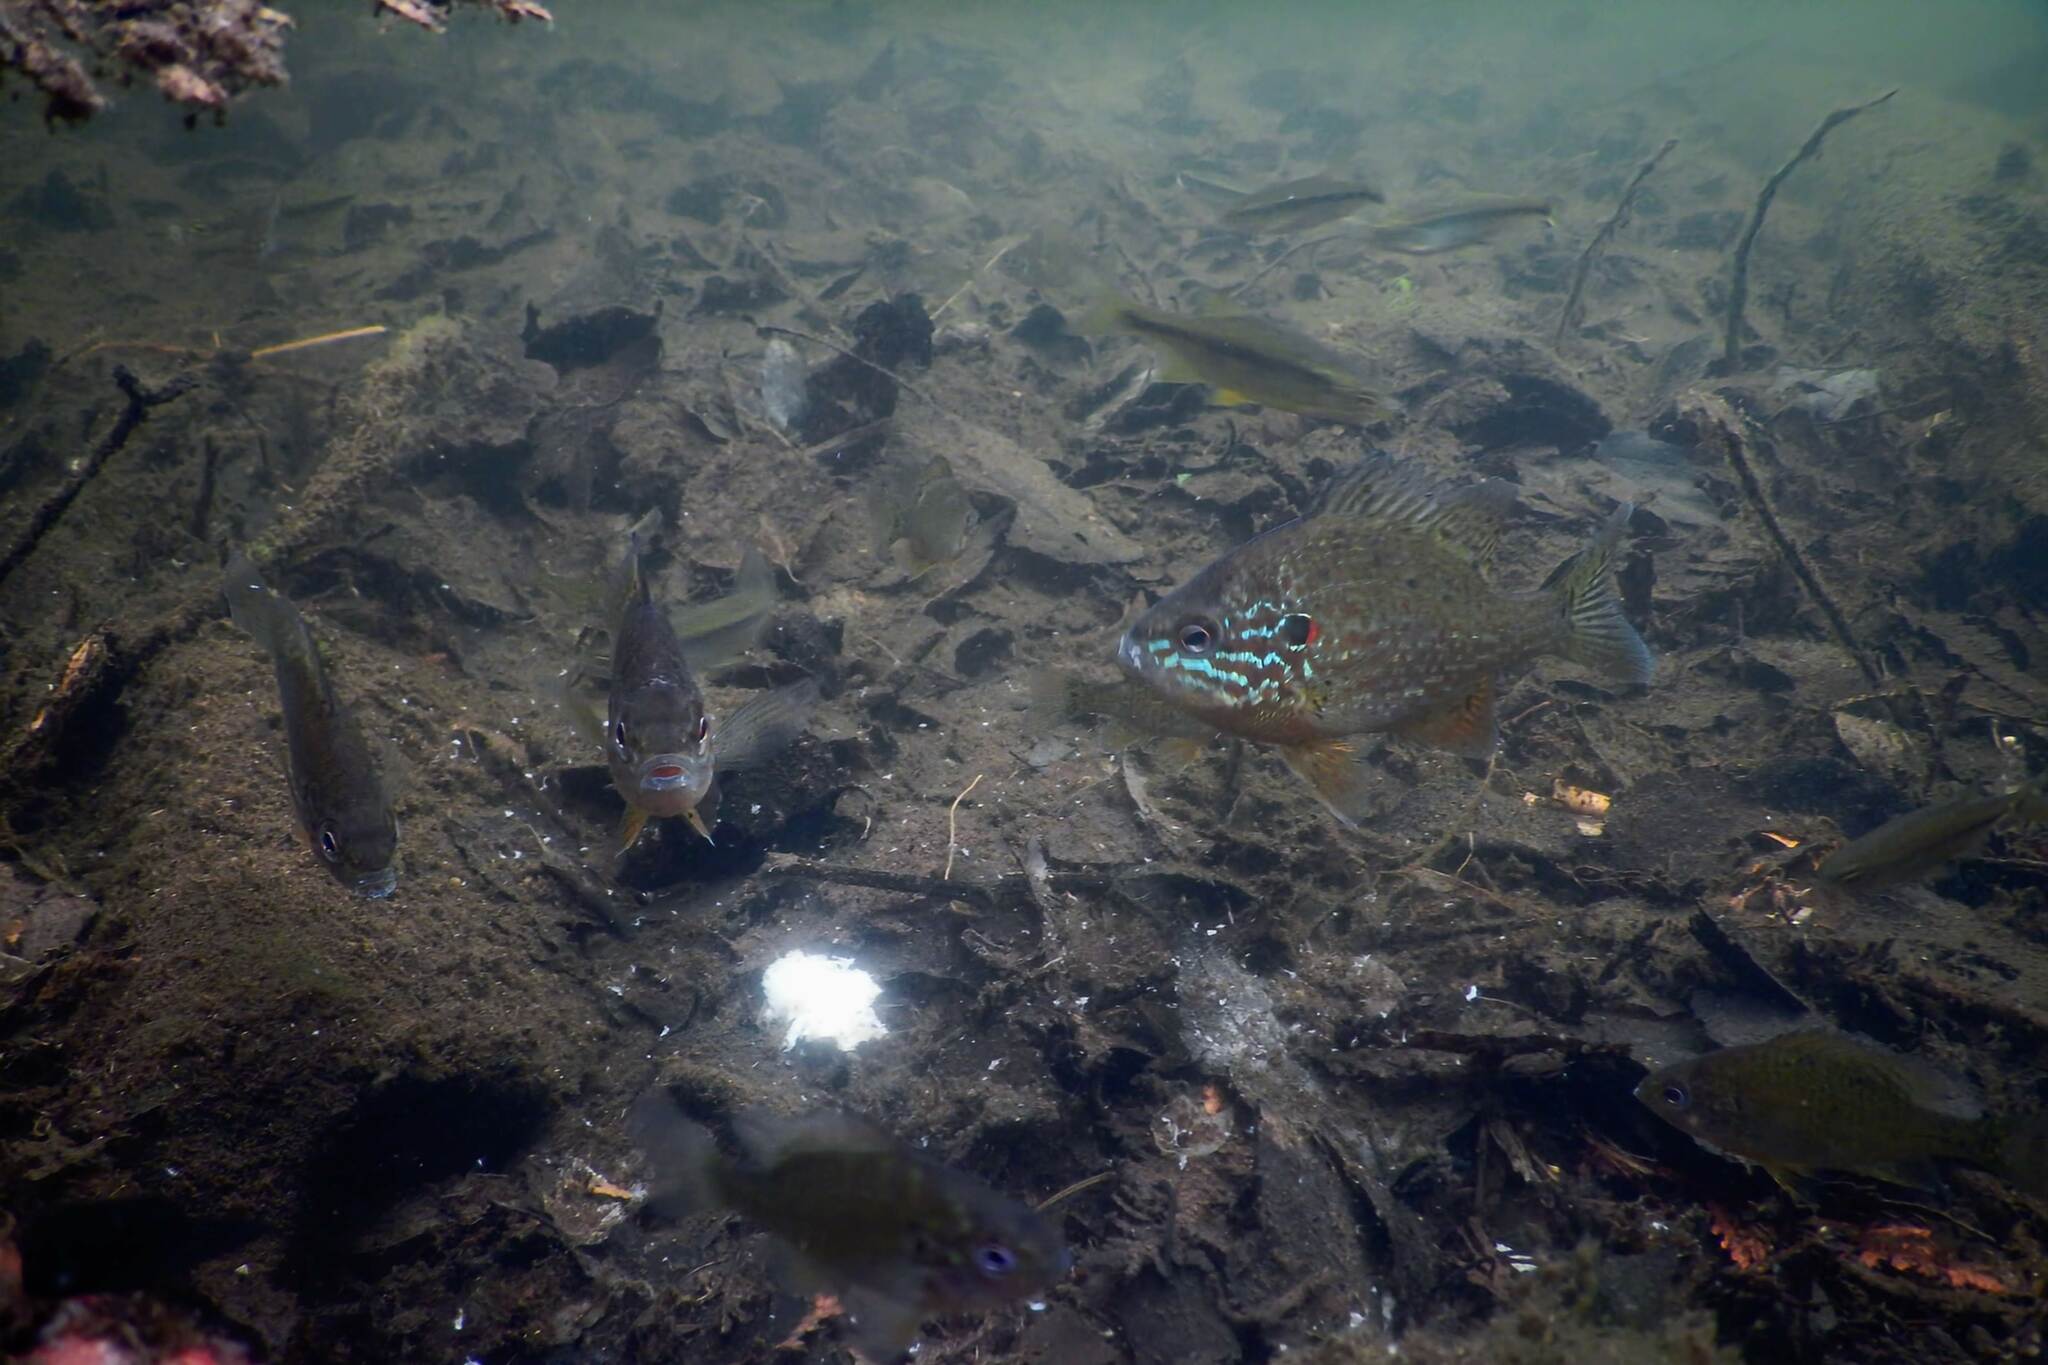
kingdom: Animalia
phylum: Chordata
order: Perciformes
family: Centrarchidae
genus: Lepomis
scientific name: Lepomis gibbosus
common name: Pumpkinseed
